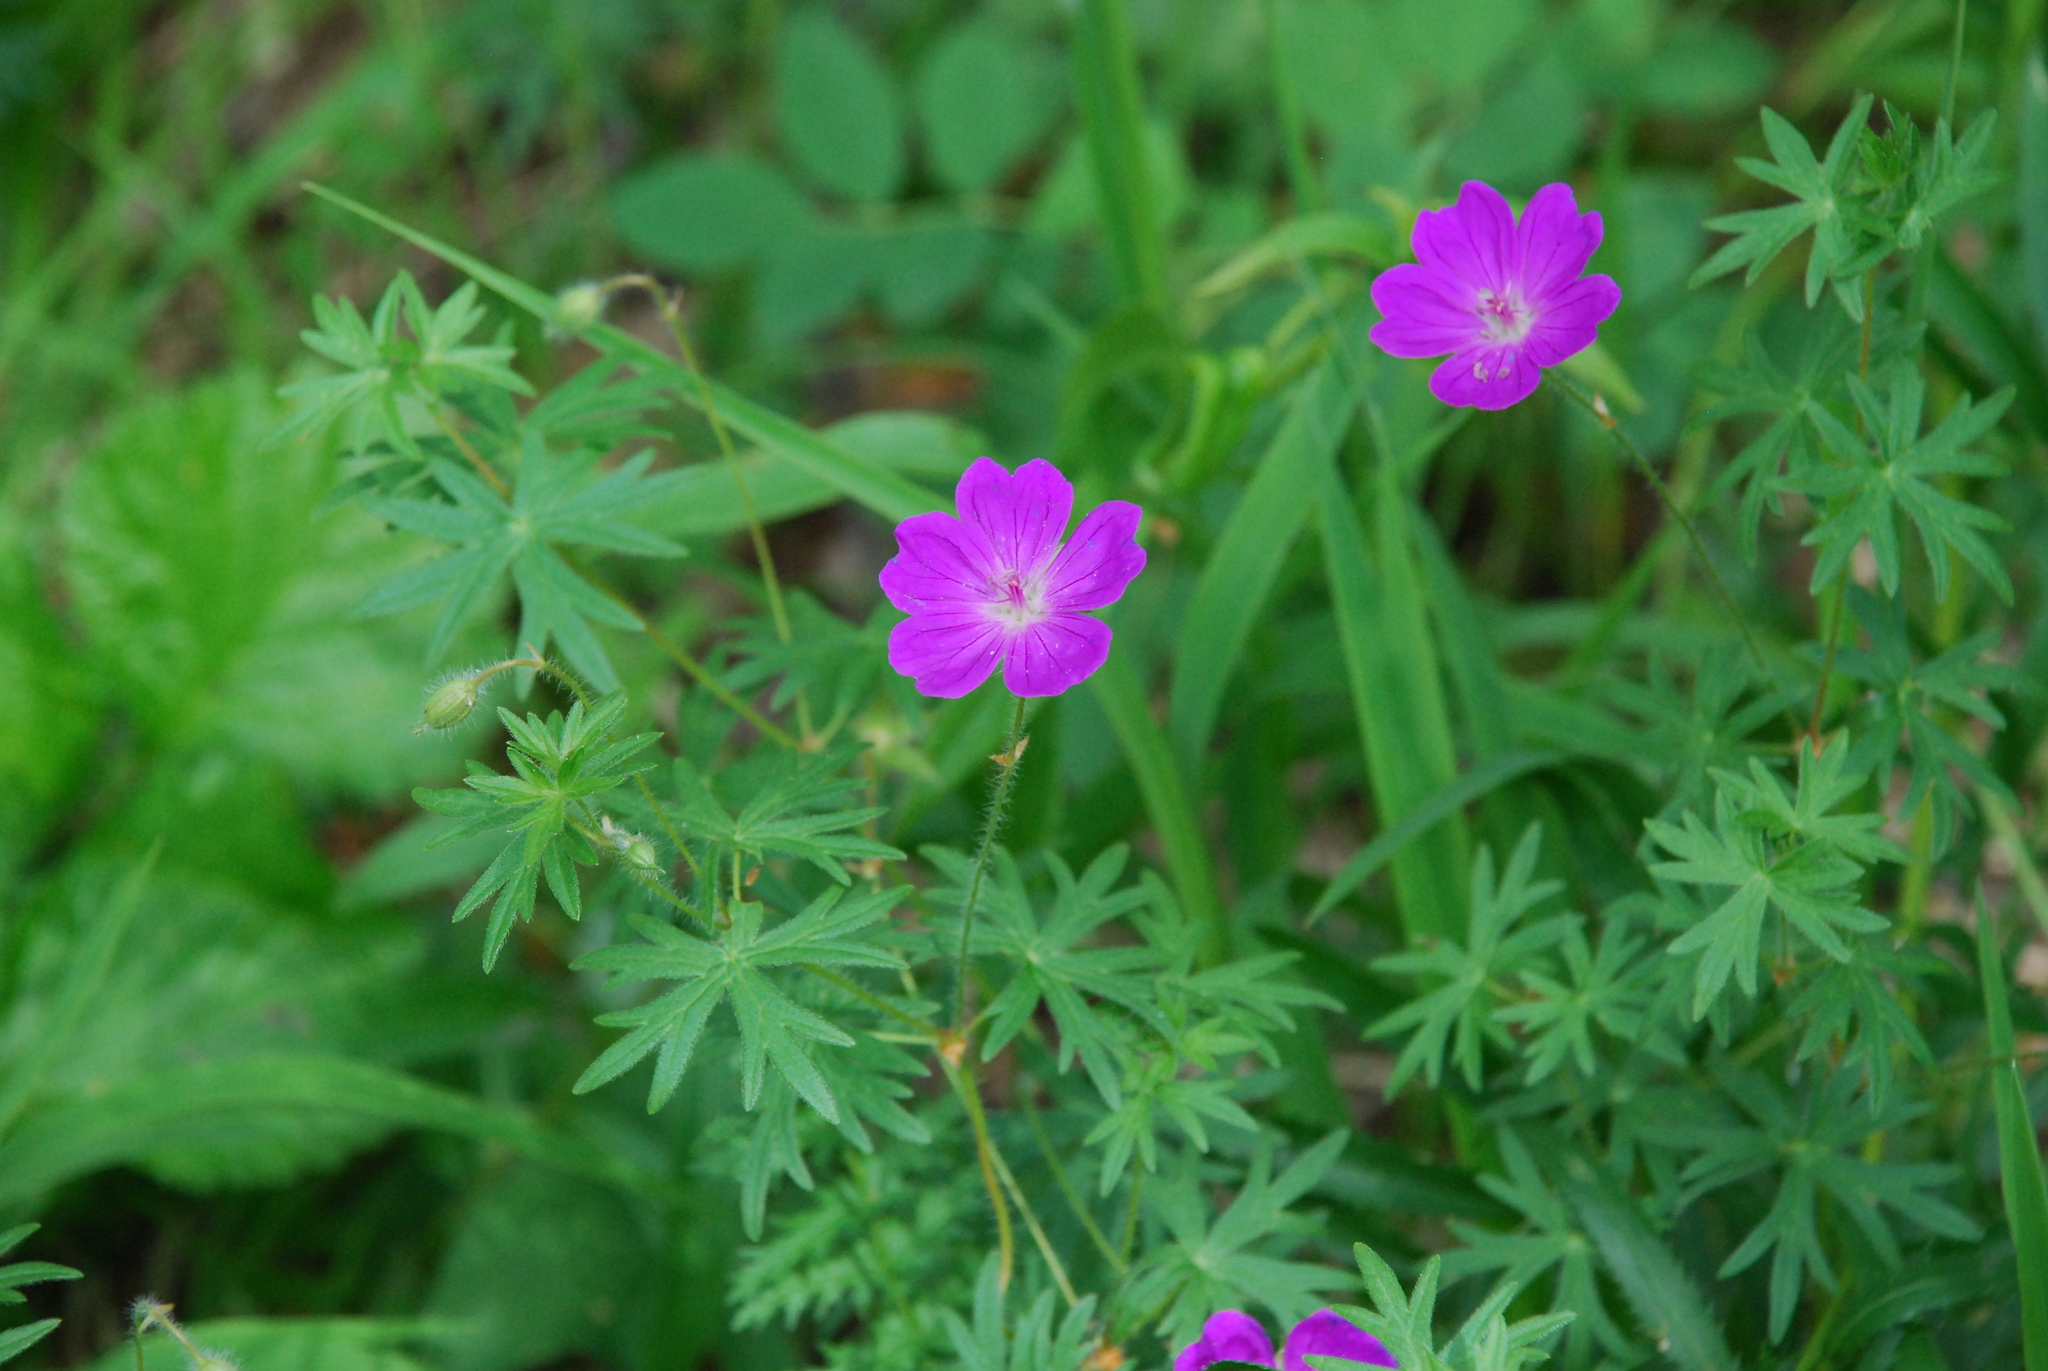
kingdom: Plantae
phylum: Tracheophyta
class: Magnoliopsida
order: Geraniales
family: Geraniaceae
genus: Geranium
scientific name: Geranium sanguineum
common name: Bloody crane's-bill
